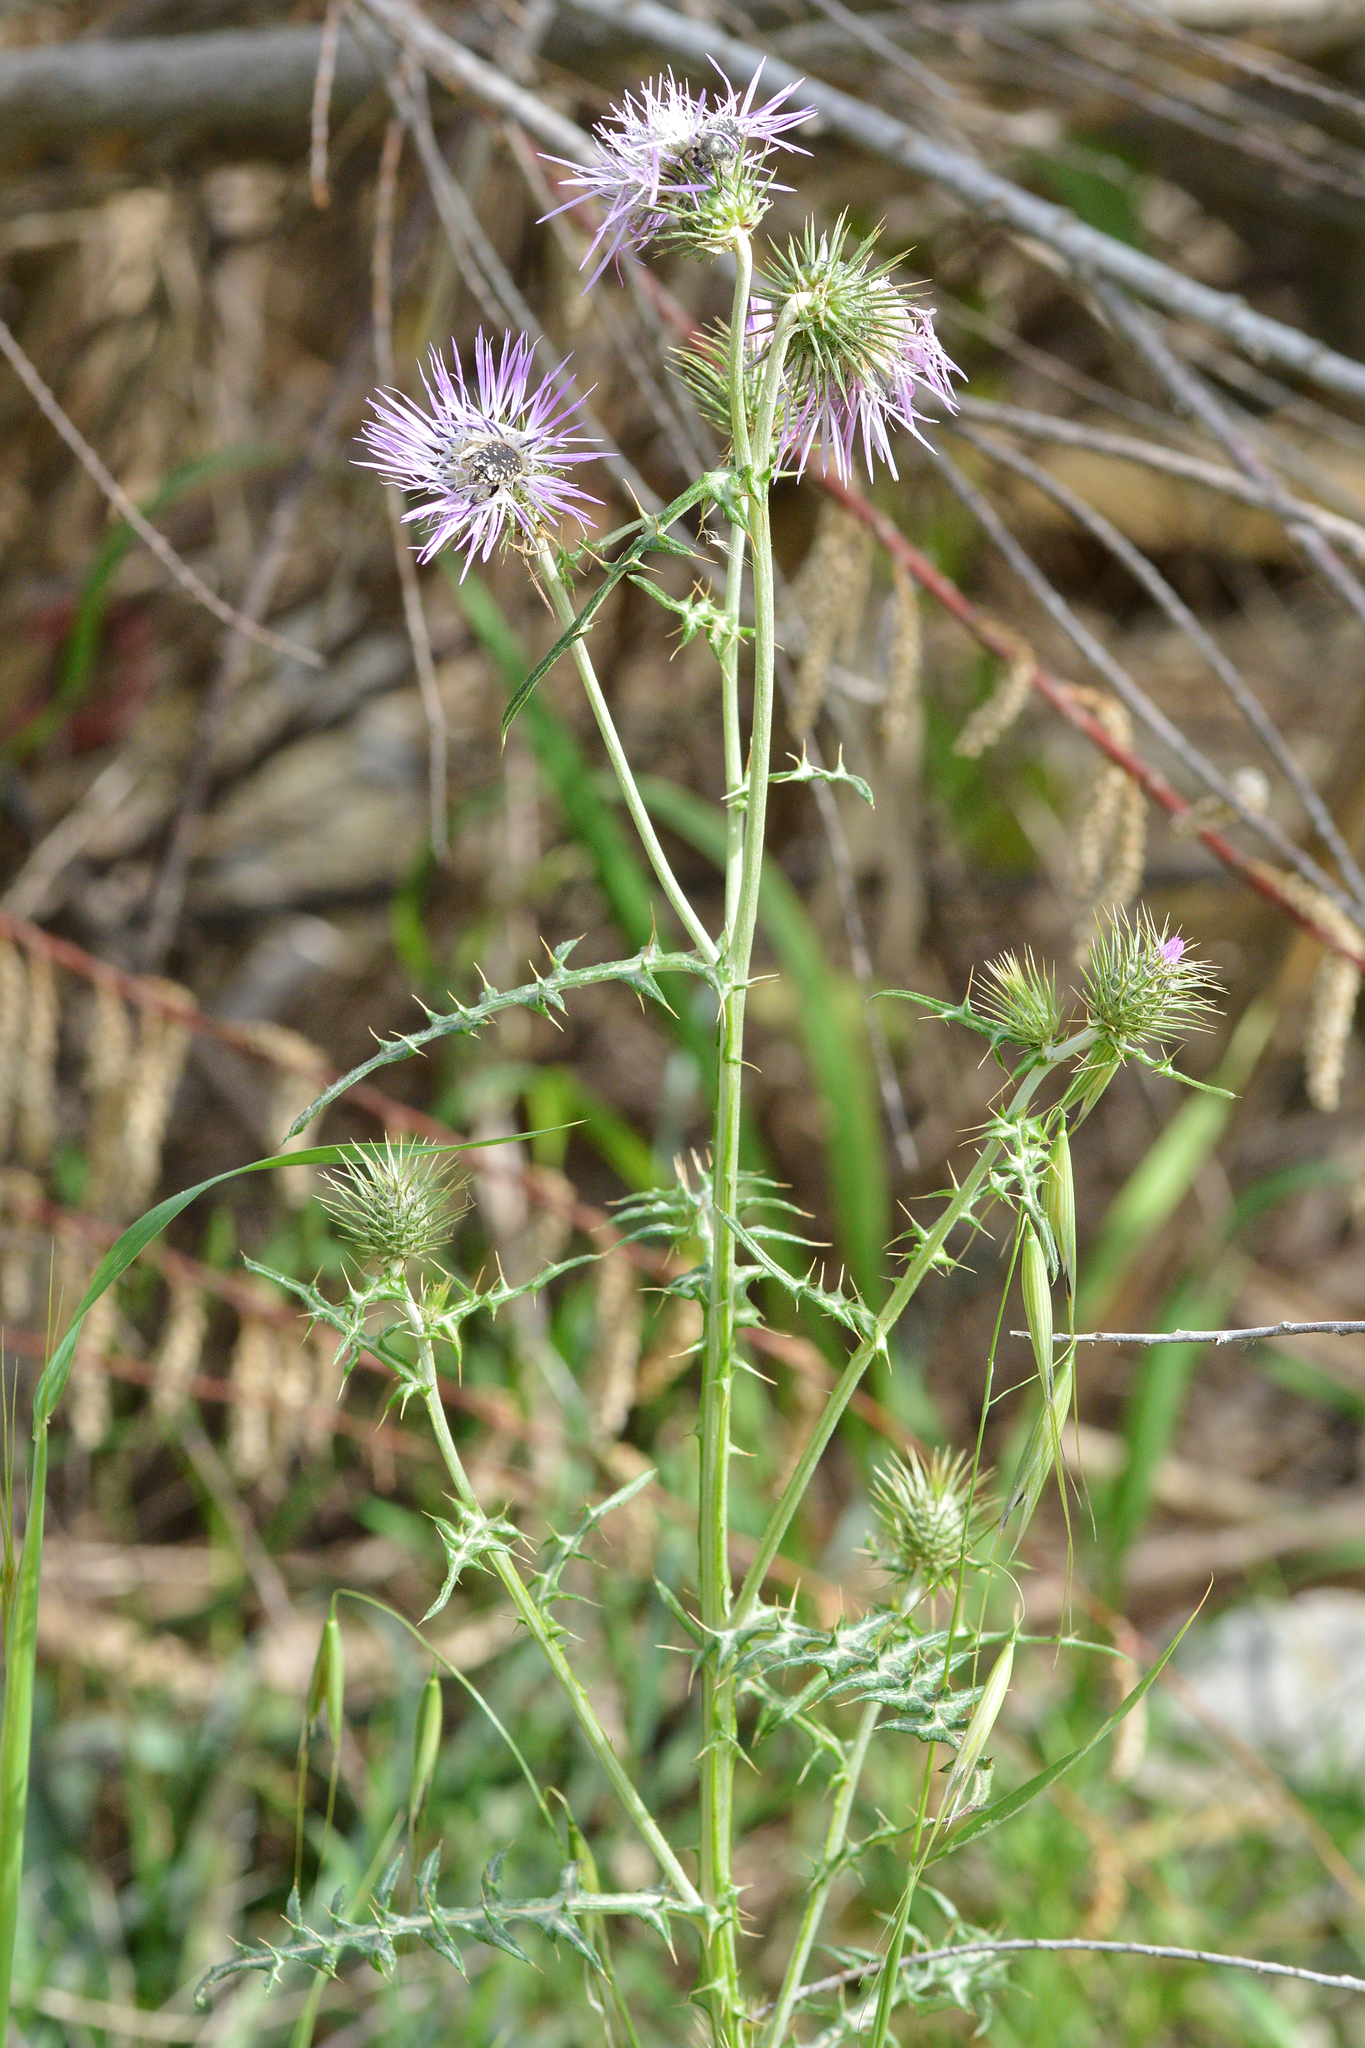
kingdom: Plantae
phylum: Tracheophyta
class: Magnoliopsida
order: Asterales
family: Asteraceae
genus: Galactites
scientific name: Galactites tomentosa
